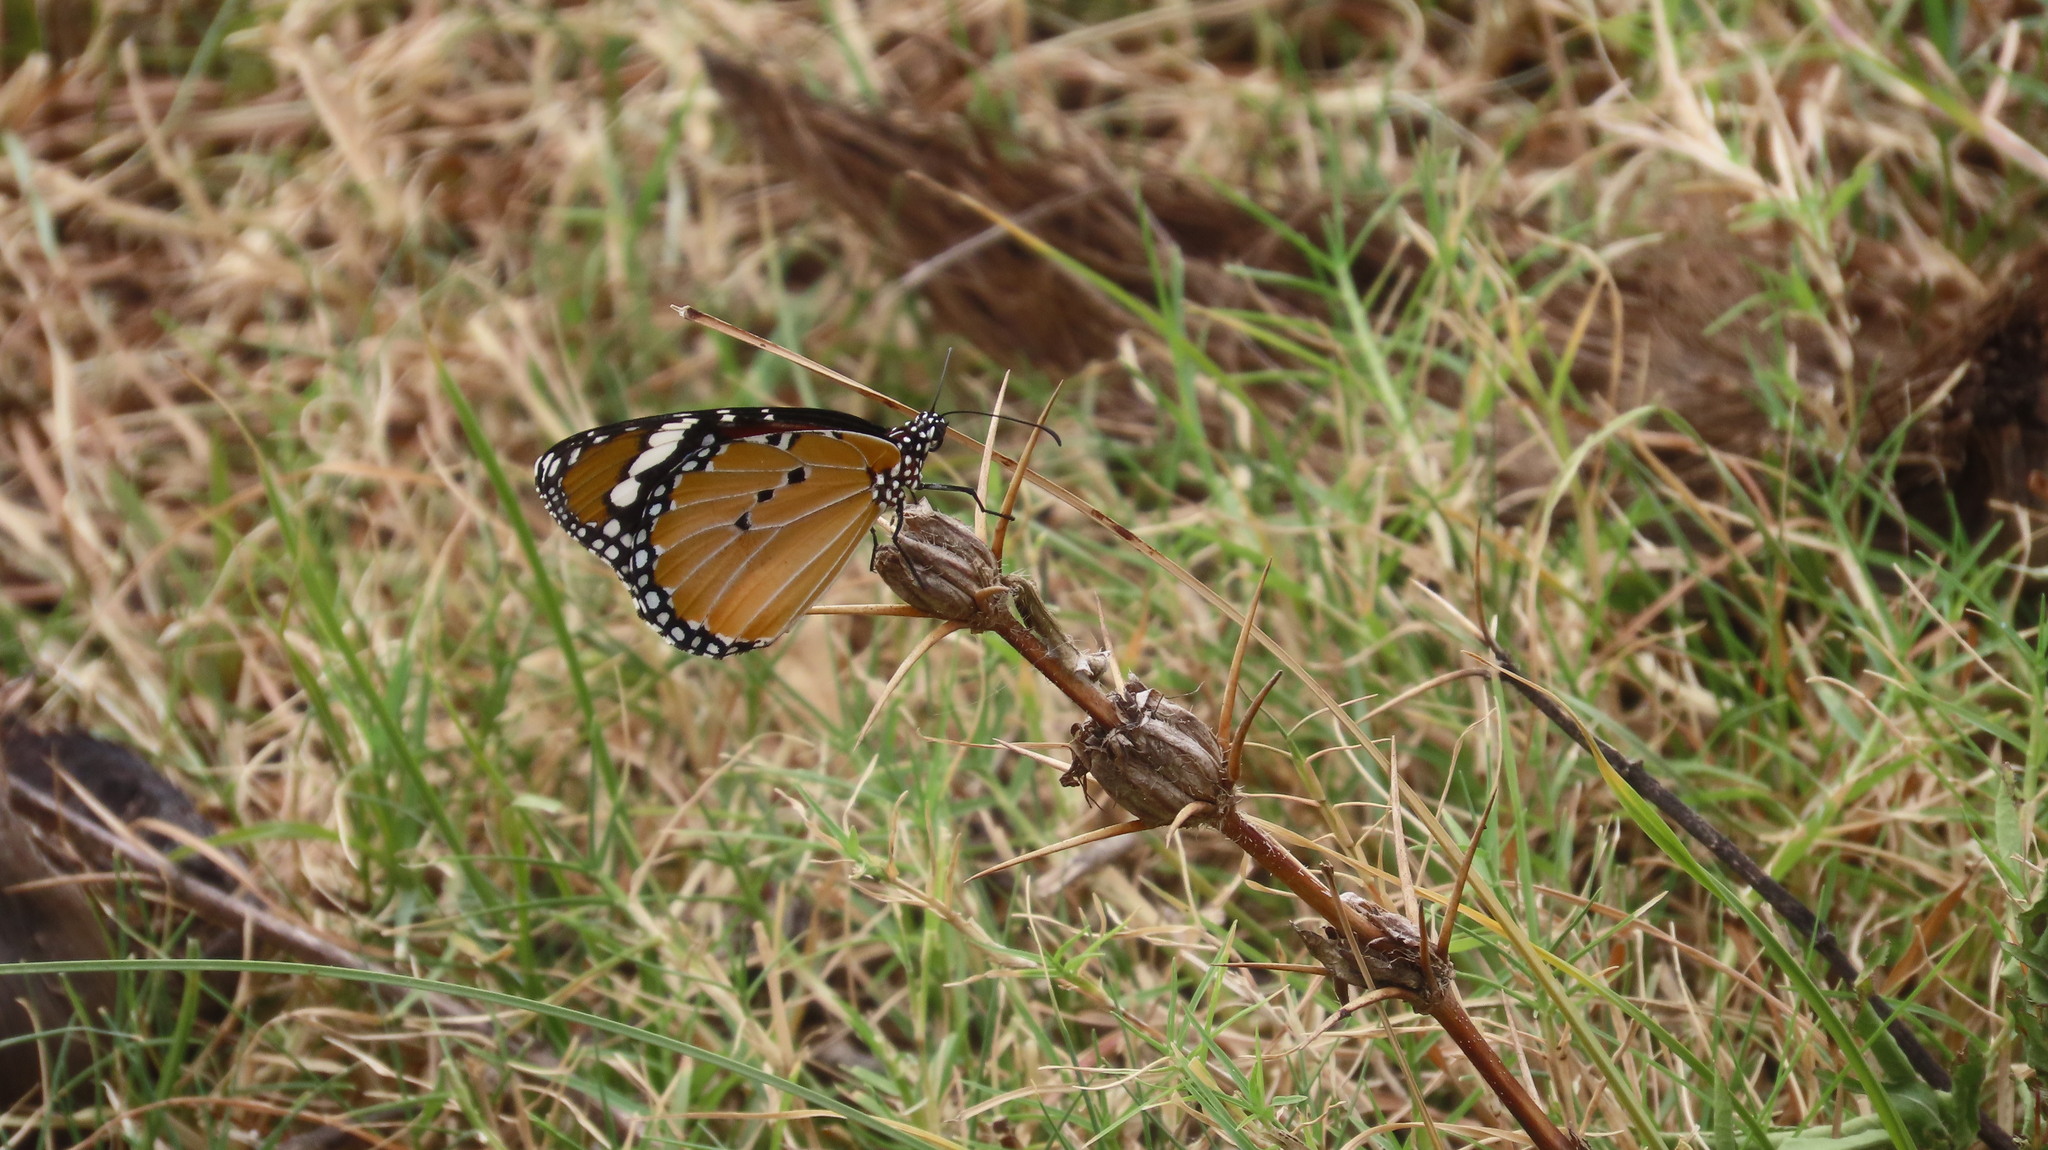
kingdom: Animalia
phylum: Arthropoda
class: Insecta
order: Lepidoptera
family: Nymphalidae
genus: Danaus
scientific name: Danaus chrysippus
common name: Plain tiger
